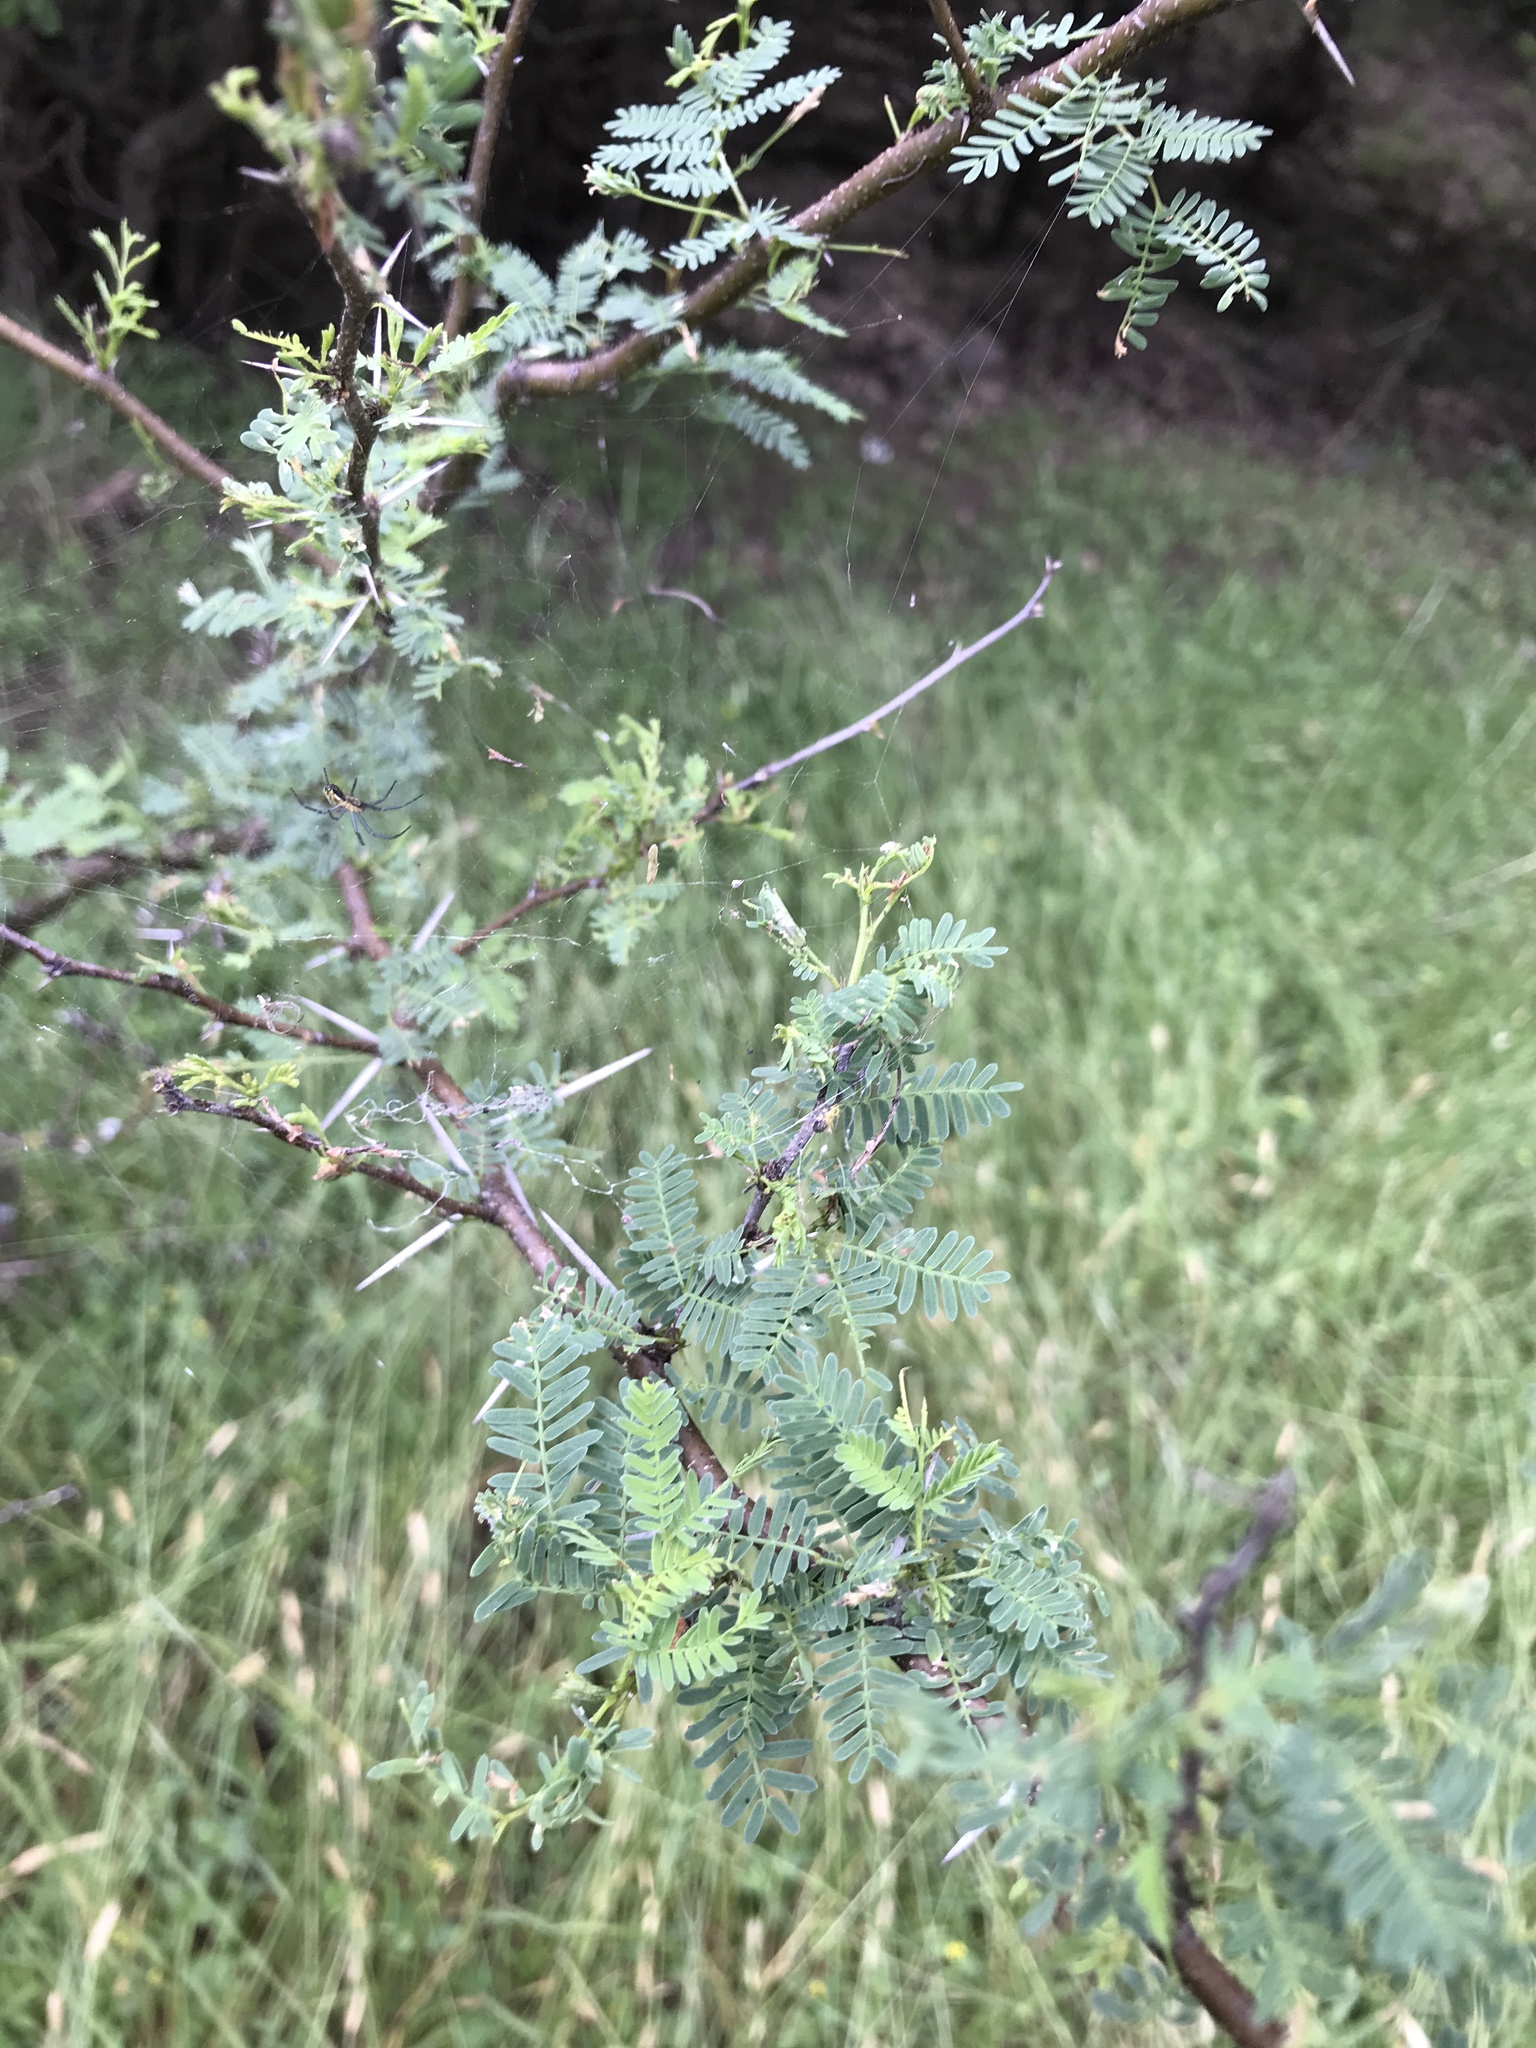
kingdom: Plantae
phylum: Tracheophyta
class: Magnoliopsida
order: Fabales
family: Fabaceae
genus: Vachellia
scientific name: Vachellia farnesiana
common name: Sweet acacia
